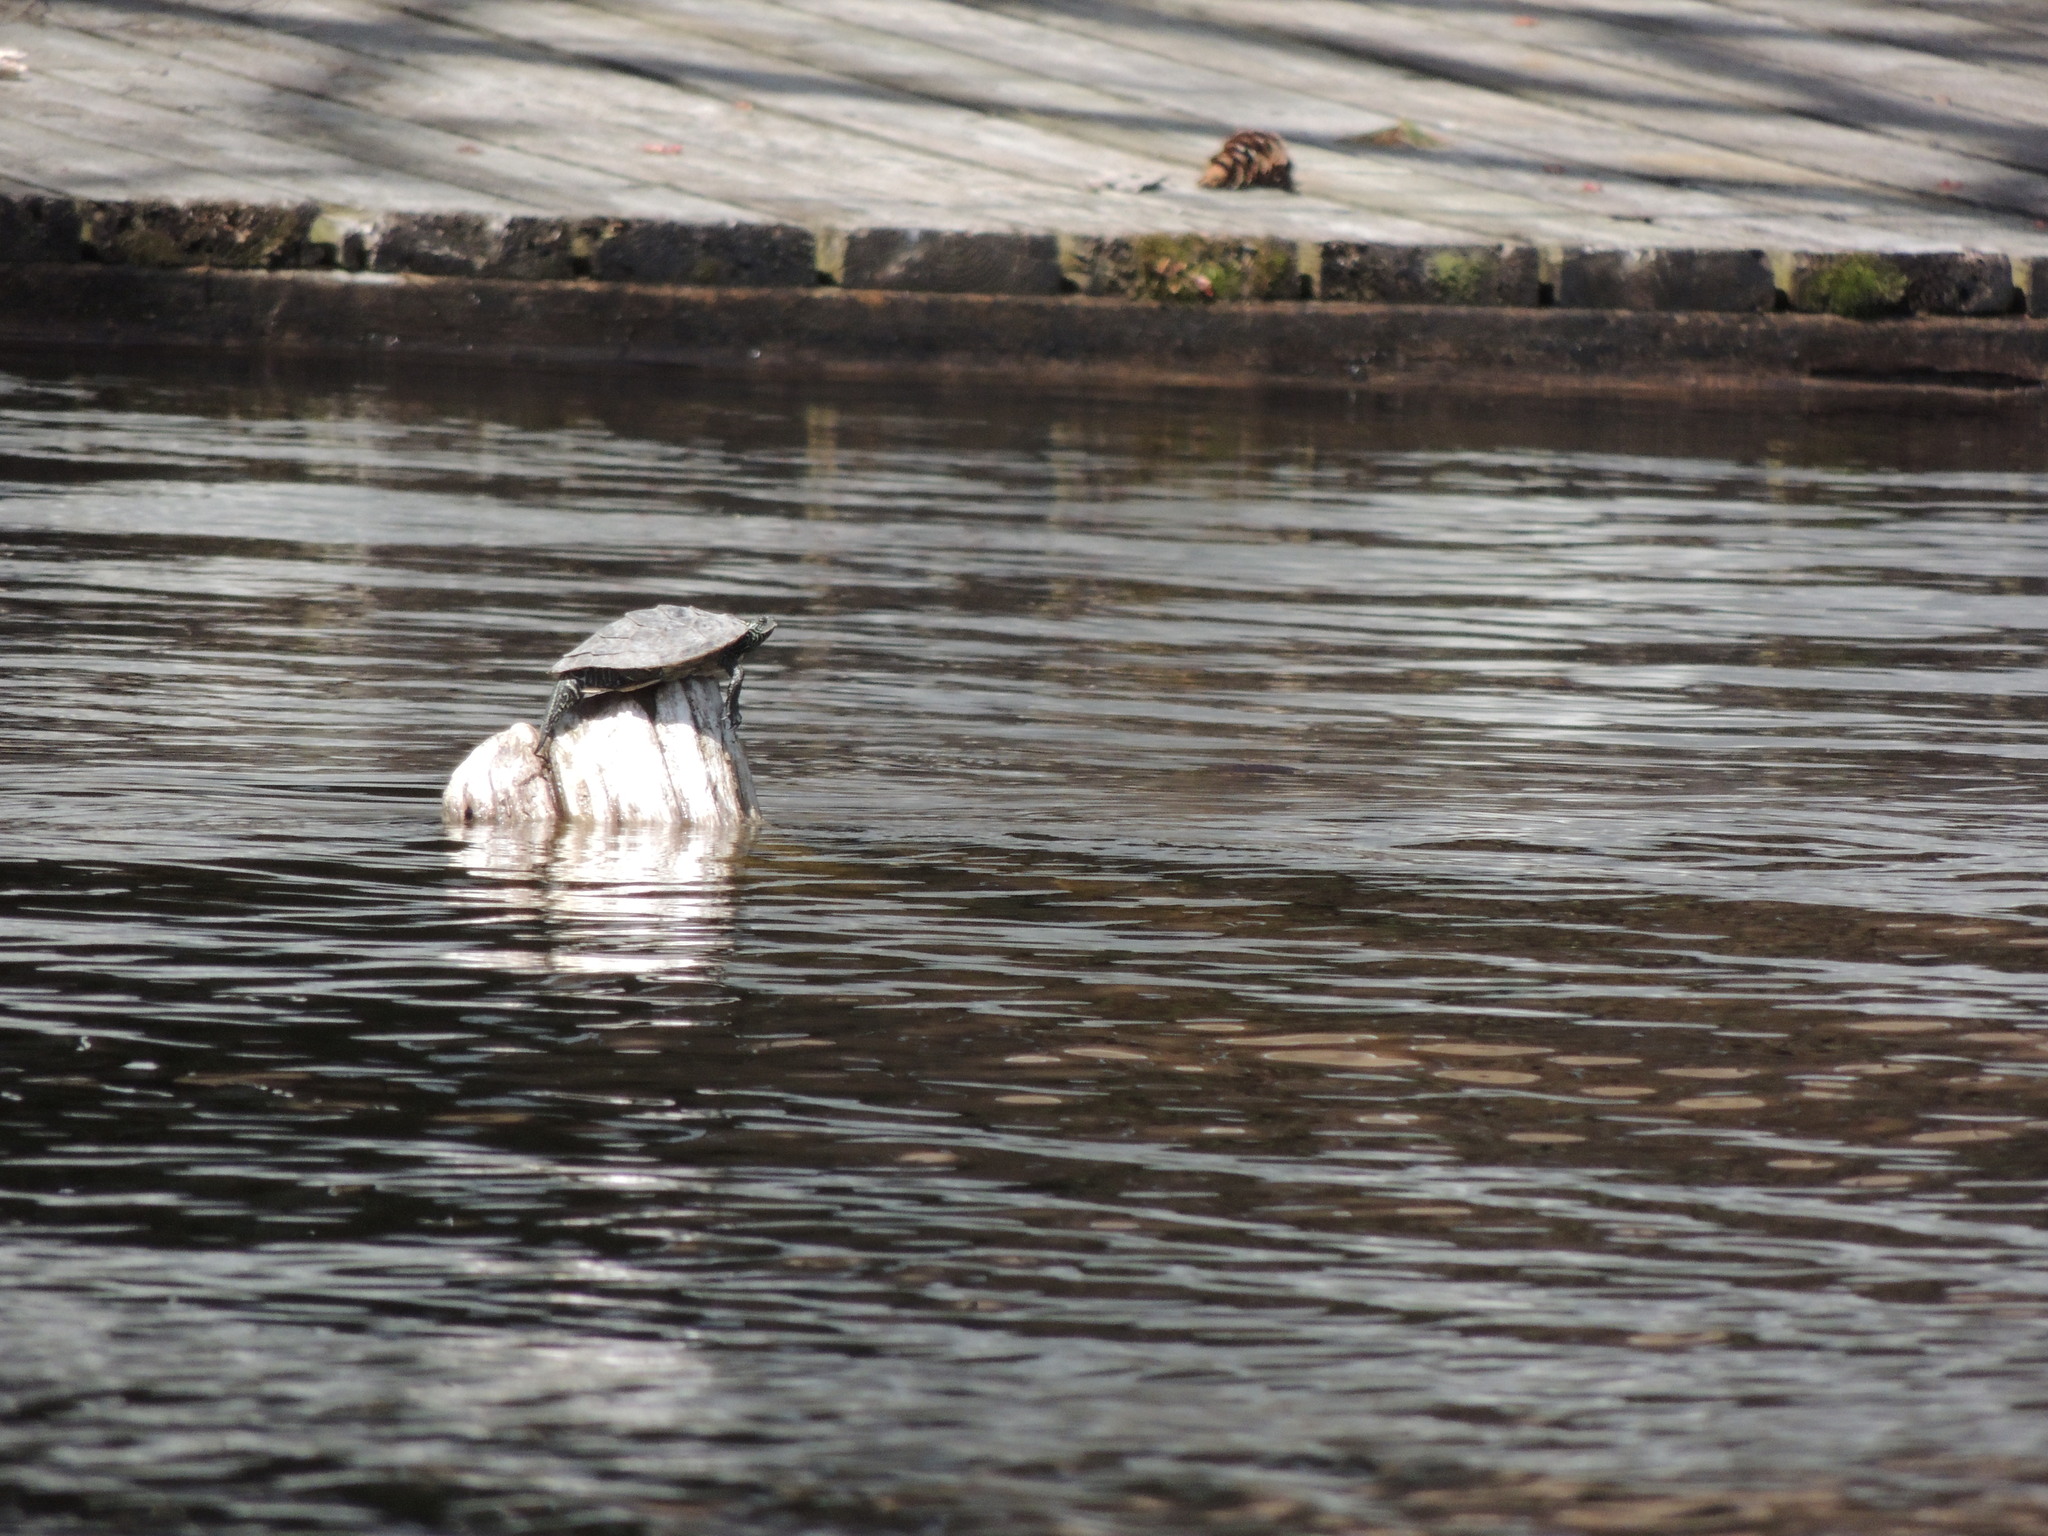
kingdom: Animalia
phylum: Chordata
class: Testudines
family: Emydidae
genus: Graptemys
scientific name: Graptemys geographica
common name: Common map turtle
